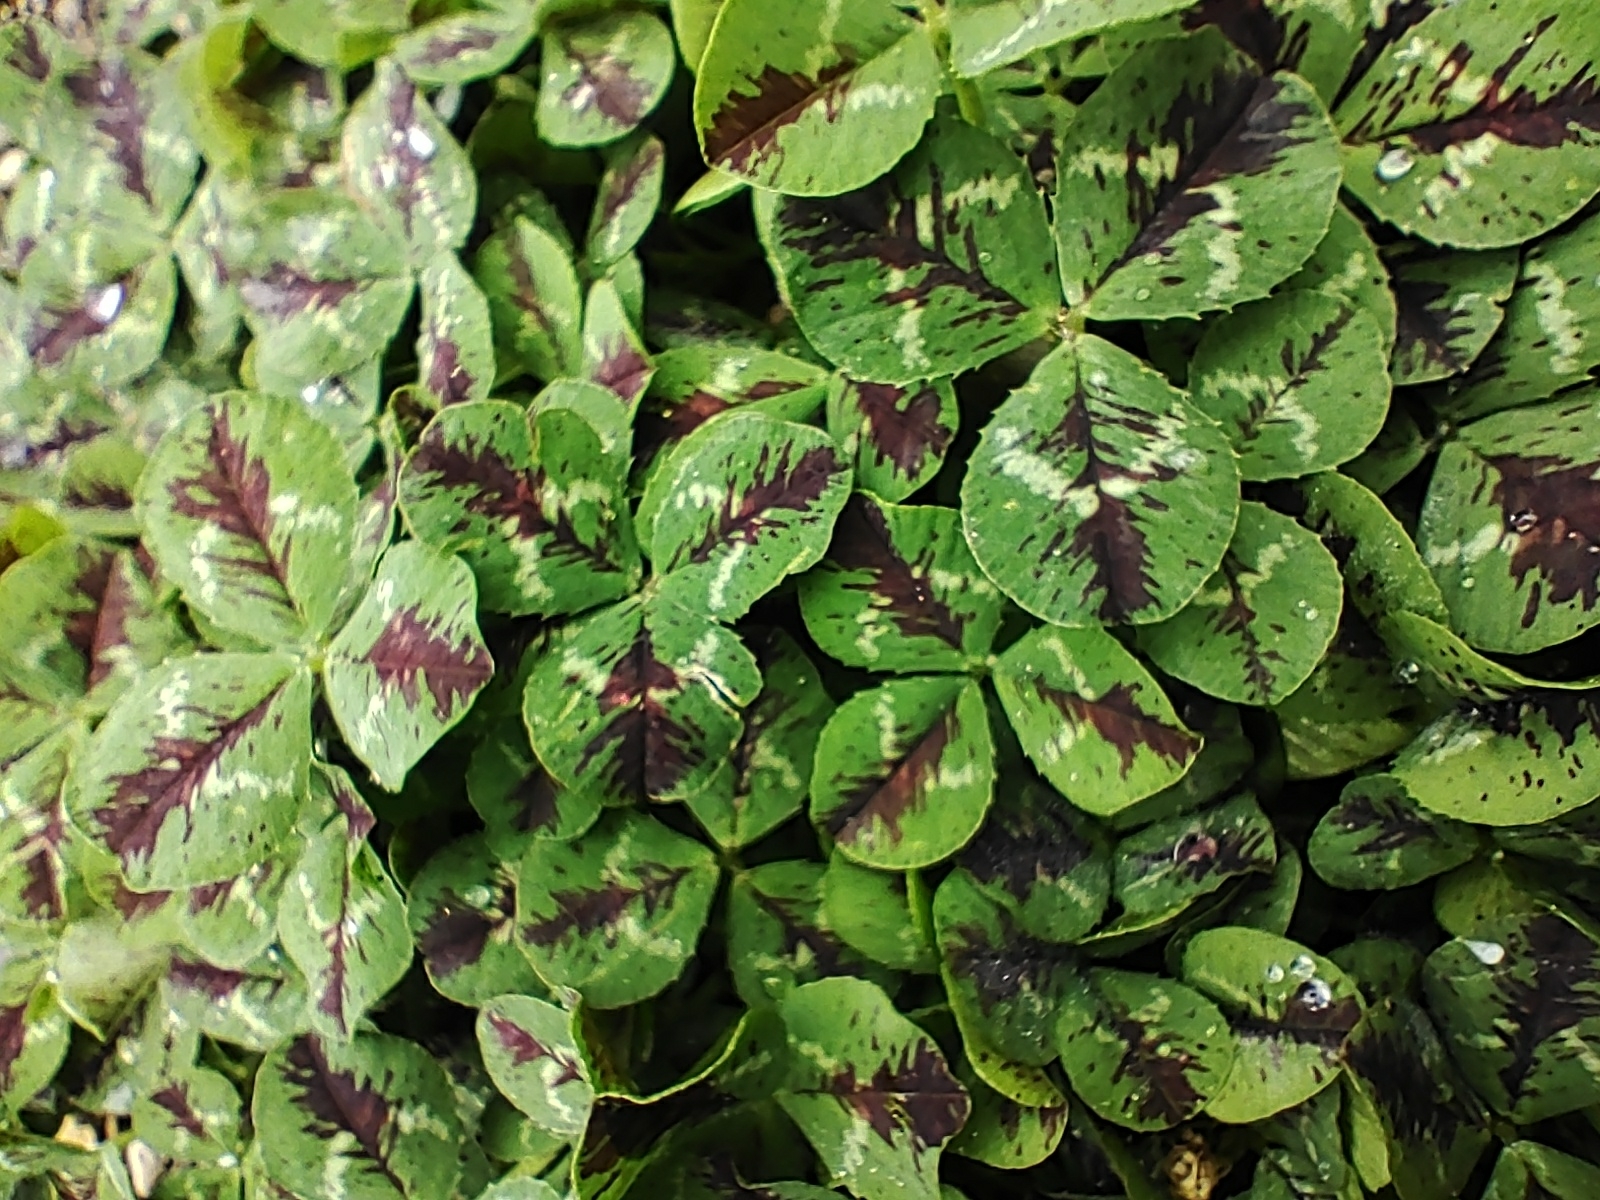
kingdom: Plantae
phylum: Tracheophyta
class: Magnoliopsida
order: Fabales
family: Fabaceae
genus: Trifolium
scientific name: Trifolium repens
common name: White clover
